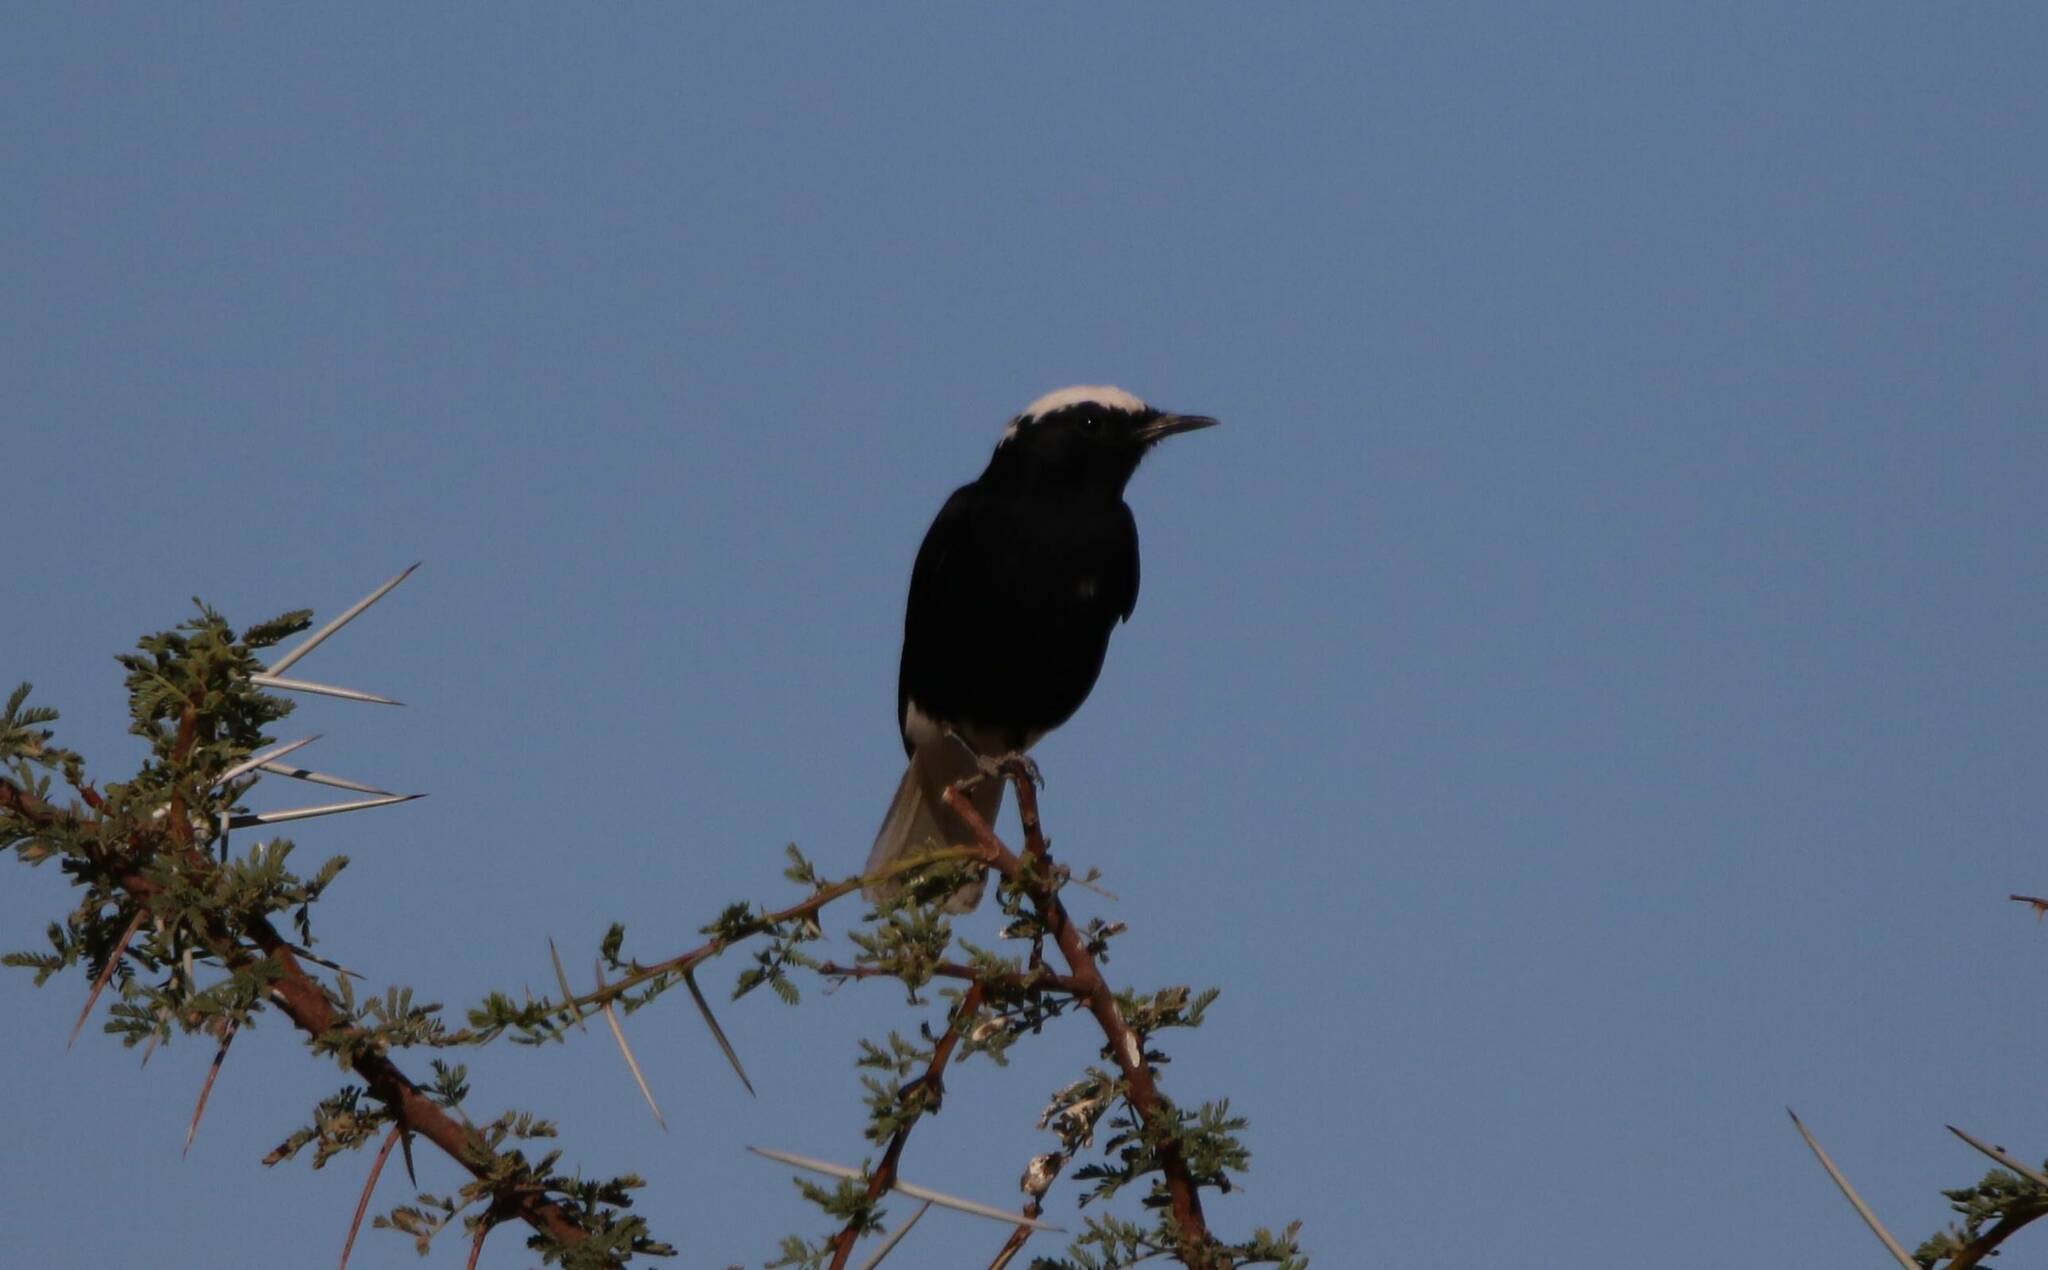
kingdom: Animalia
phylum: Chordata
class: Aves
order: Passeriformes
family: Muscicapidae
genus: Oenanthe
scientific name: Oenanthe leucopyga
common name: White-crowned wheatear
